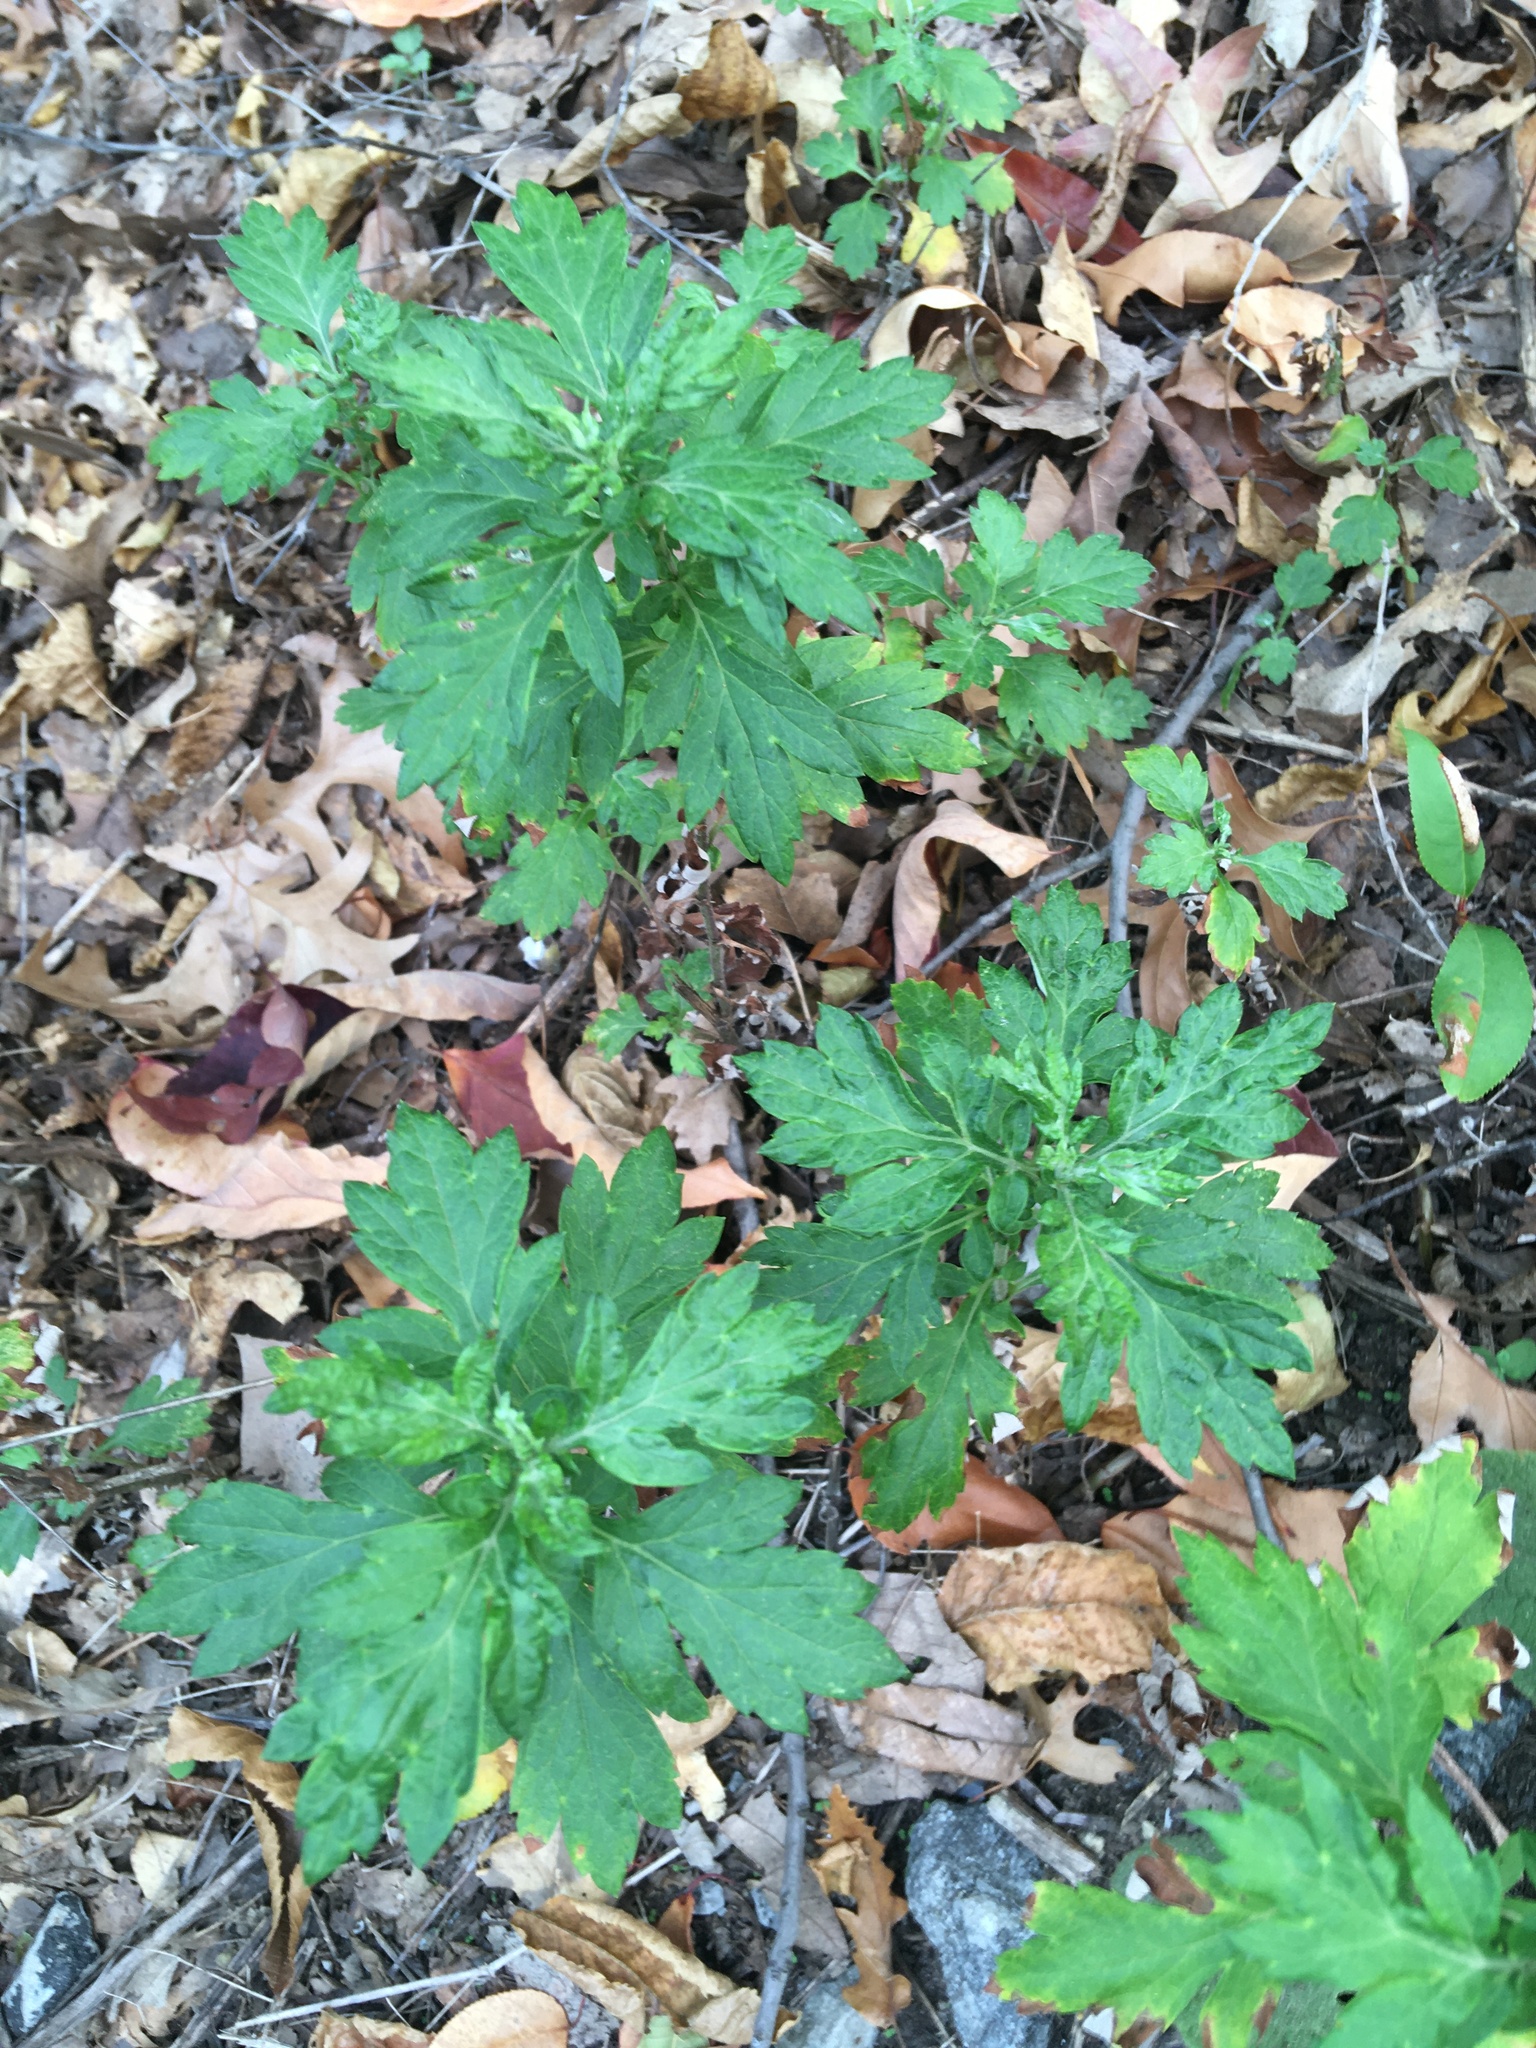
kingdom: Plantae
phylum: Tracheophyta
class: Magnoliopsida
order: Asterales
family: Asteraceae
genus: Artemisia
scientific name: Artemisia vulgaris
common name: Mugwort
